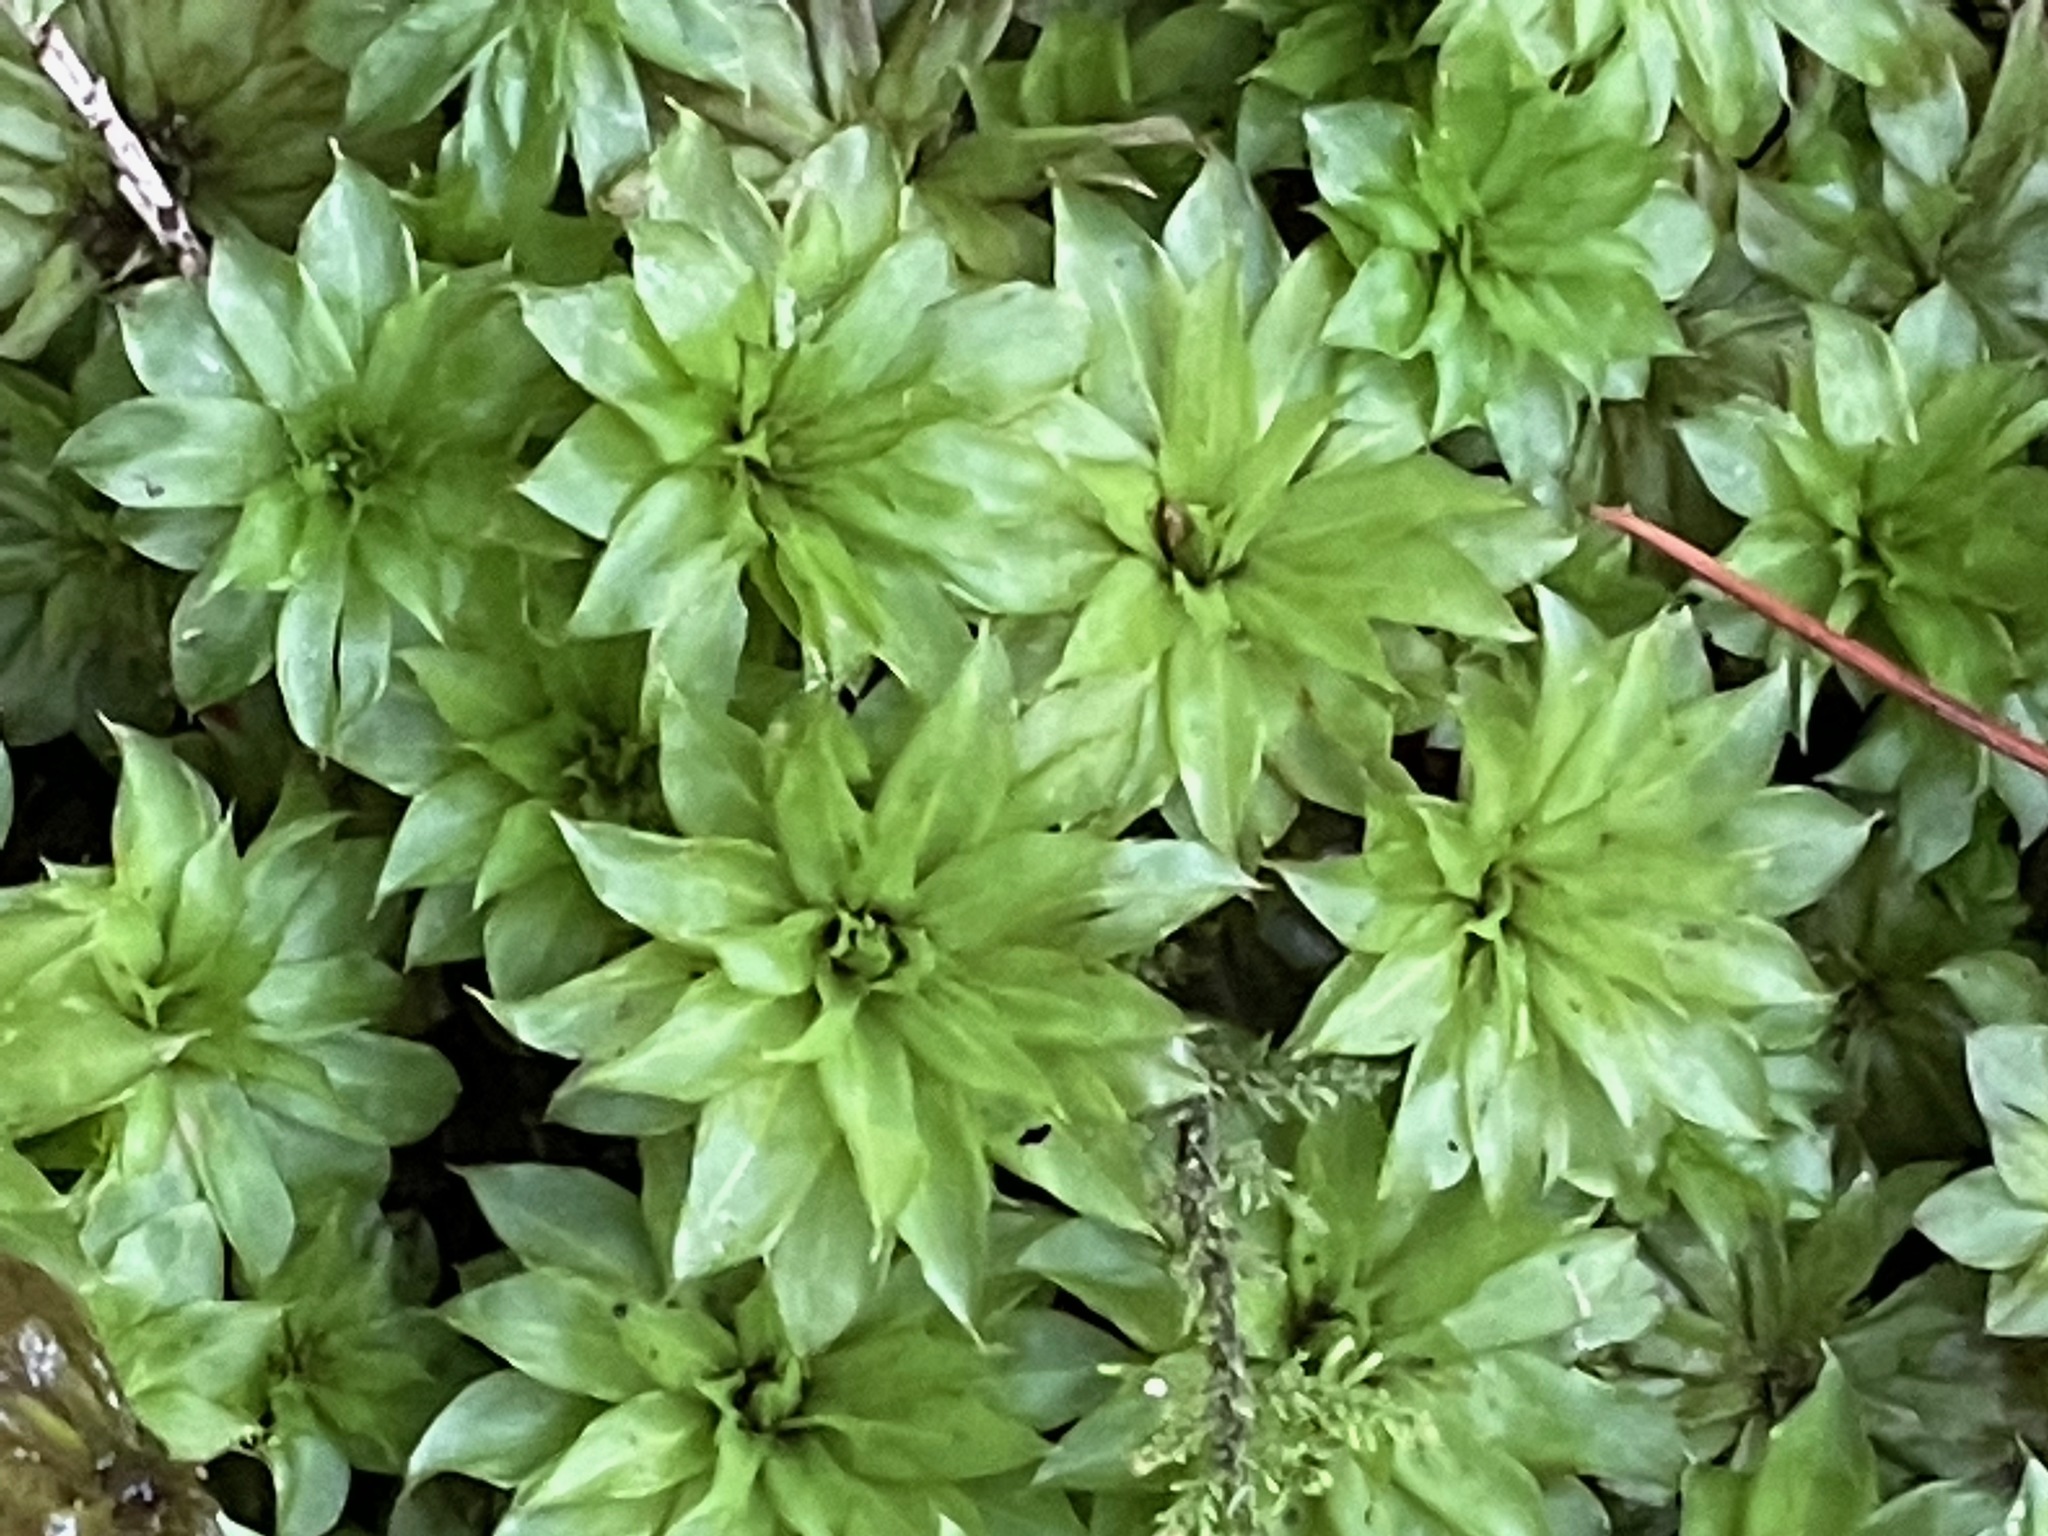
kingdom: Plantae
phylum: Bryophyta
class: Bryopsida
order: Bryales
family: Bryaceae
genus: Rhodobryum
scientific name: Rhodobryum ontariense
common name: Ontario rhodobryum moss
